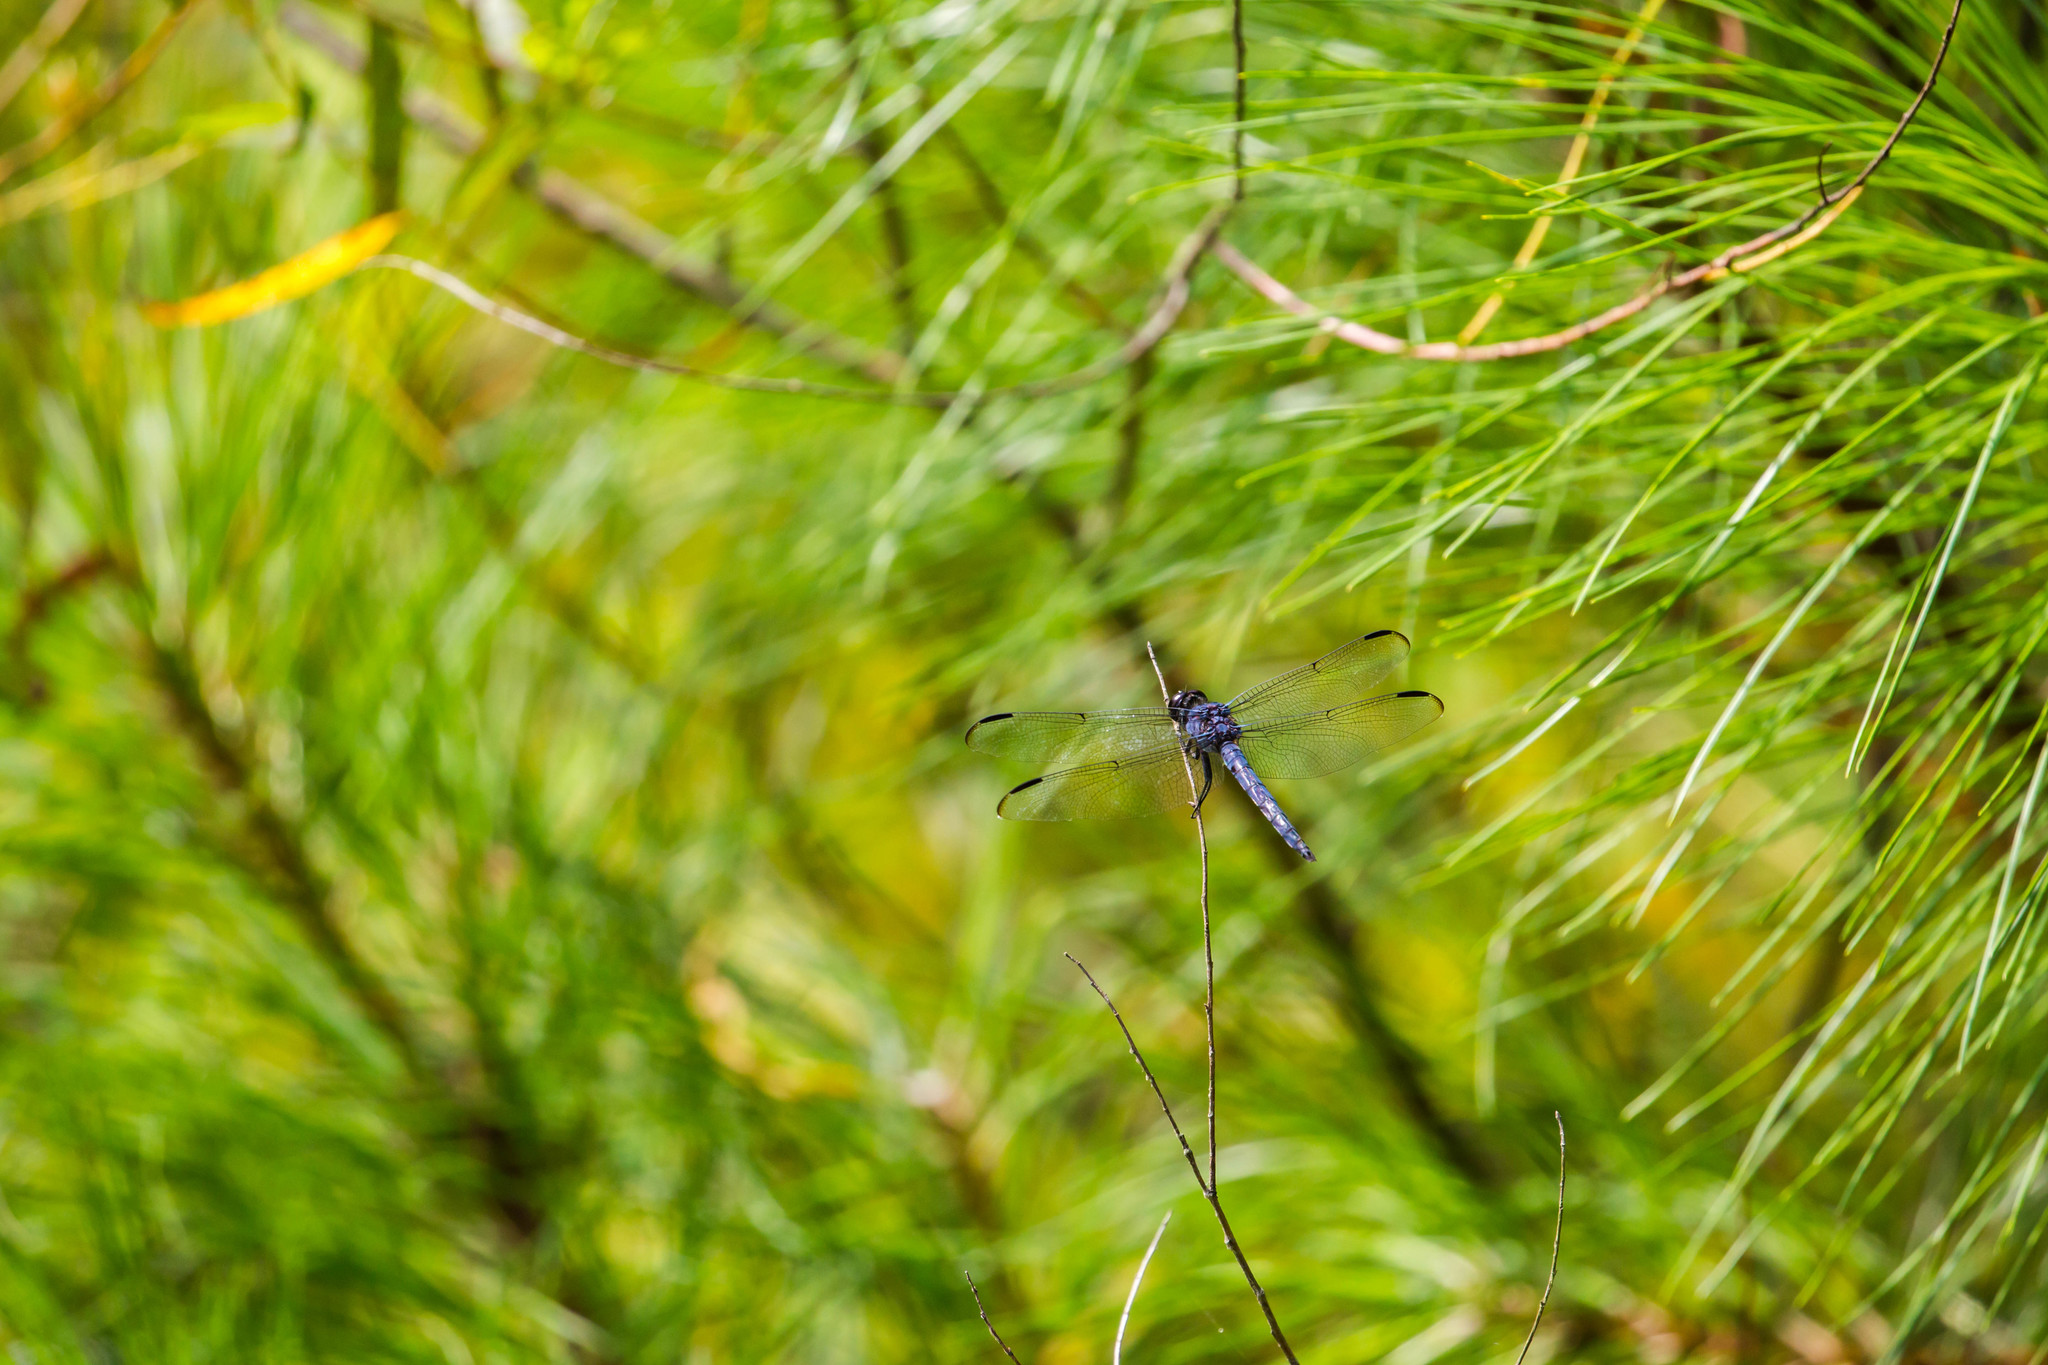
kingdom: Animalia
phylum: Arthropoda
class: Insecta
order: Odonata
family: Libellulidae
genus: Libellula
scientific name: Libellula incesta
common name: Slaty skimmer
